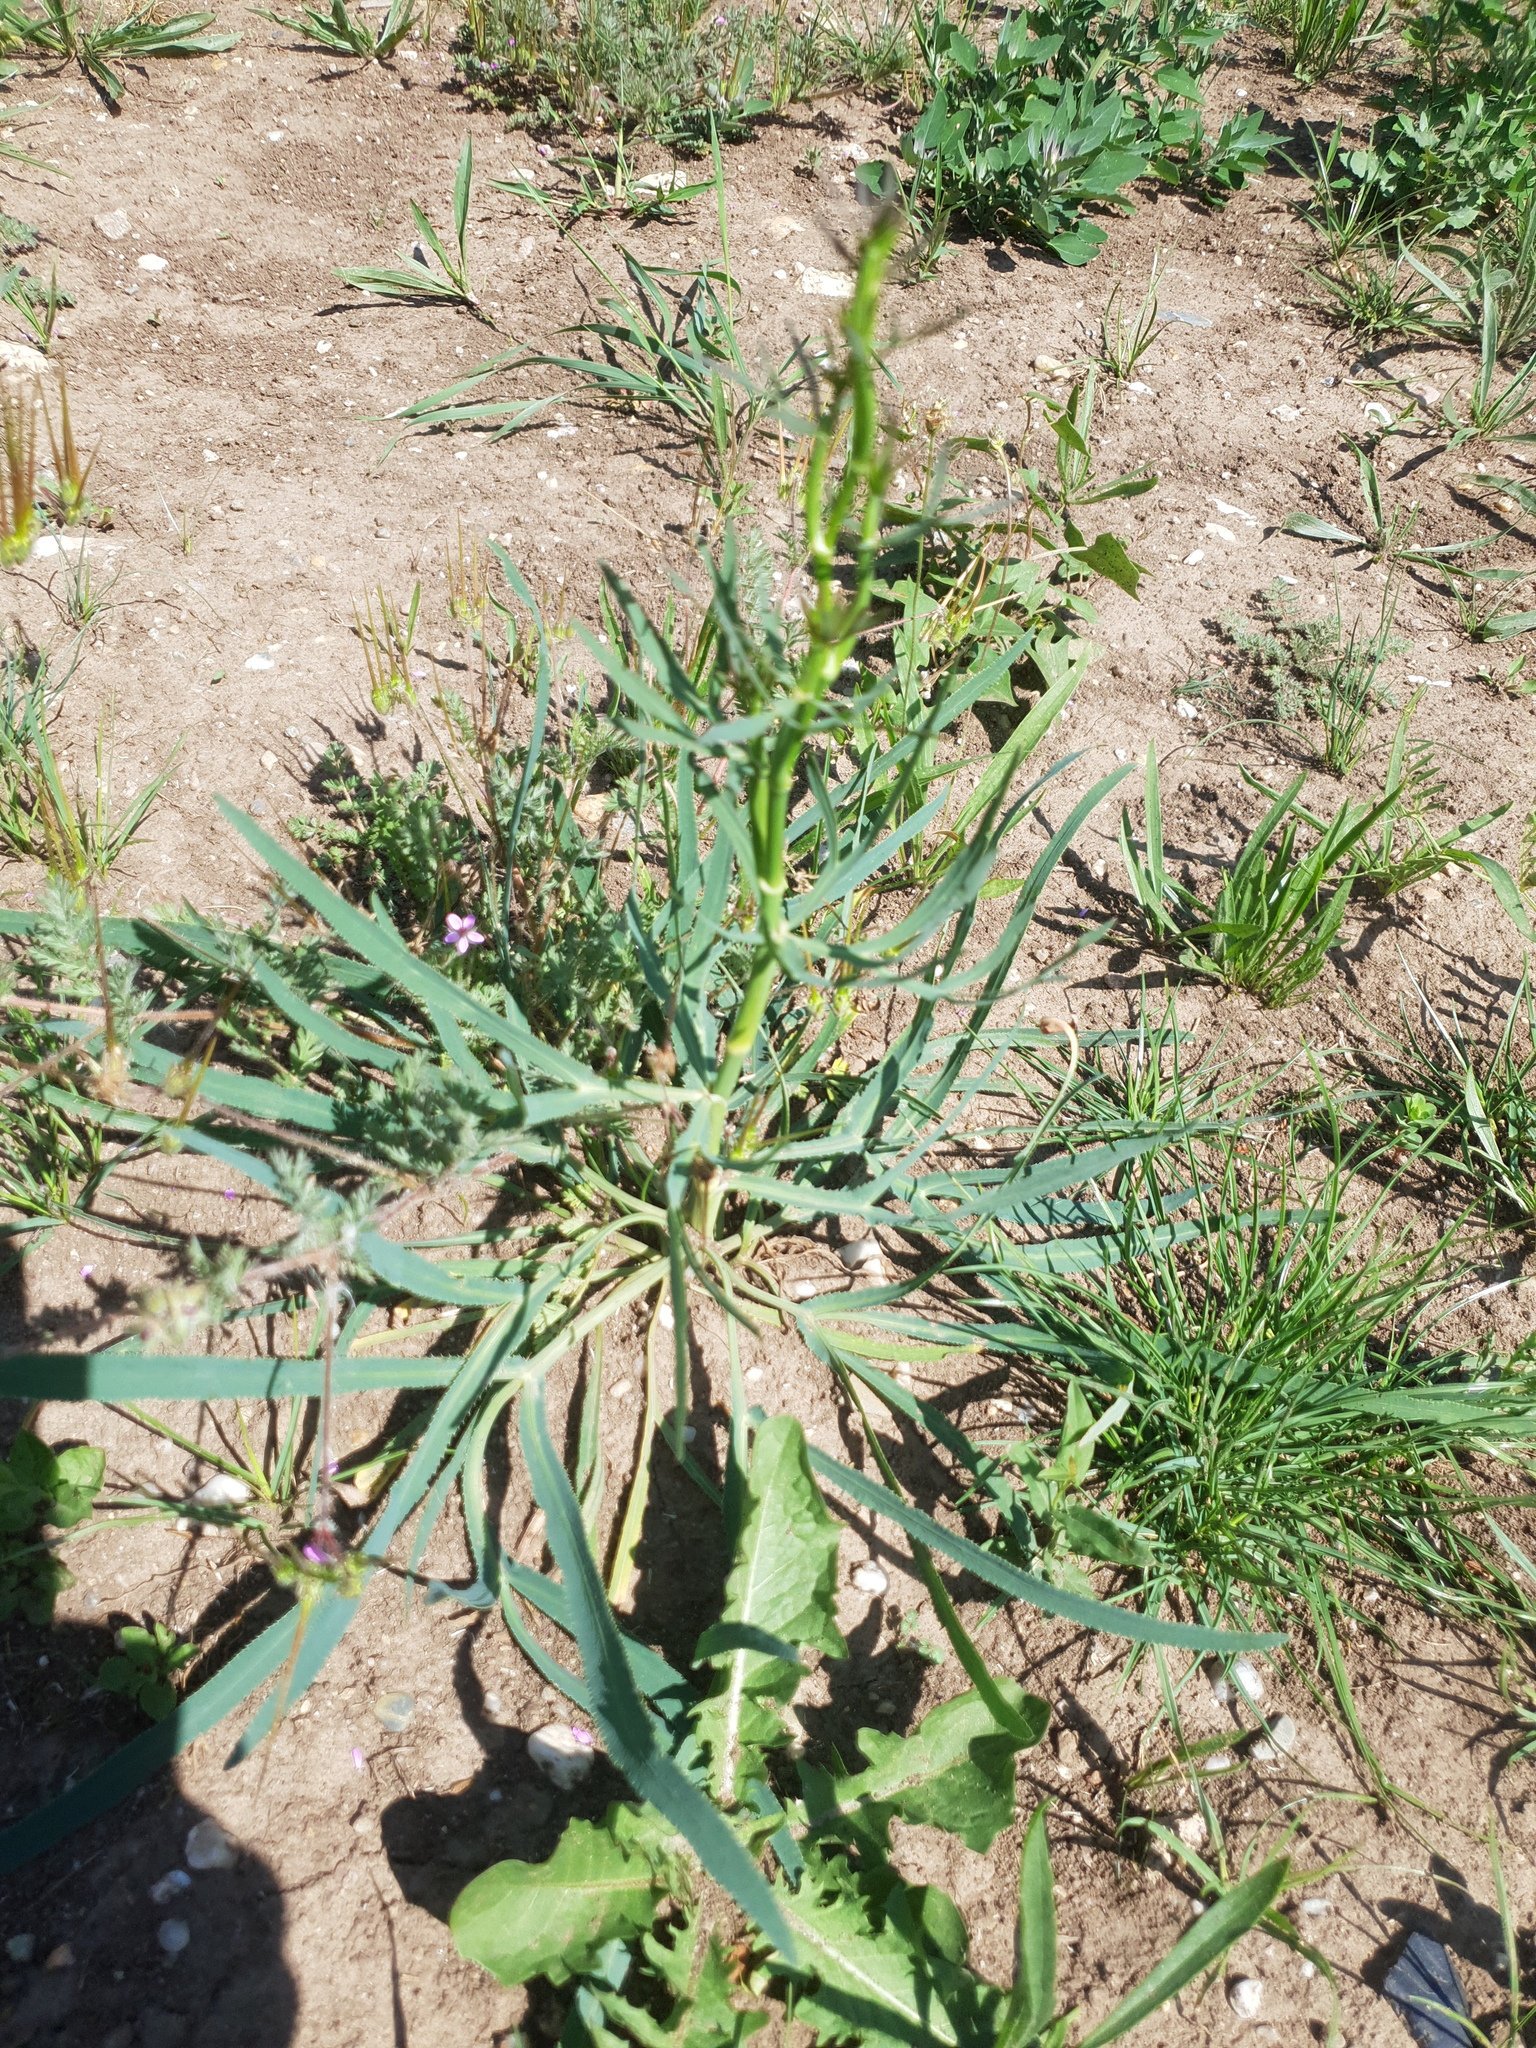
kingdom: Plantae
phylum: Tracheophyta
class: Magnoliopsida
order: Apiales
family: Apiaceae
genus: Falcaria
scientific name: Falcaria vulgaris
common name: Longleaf
